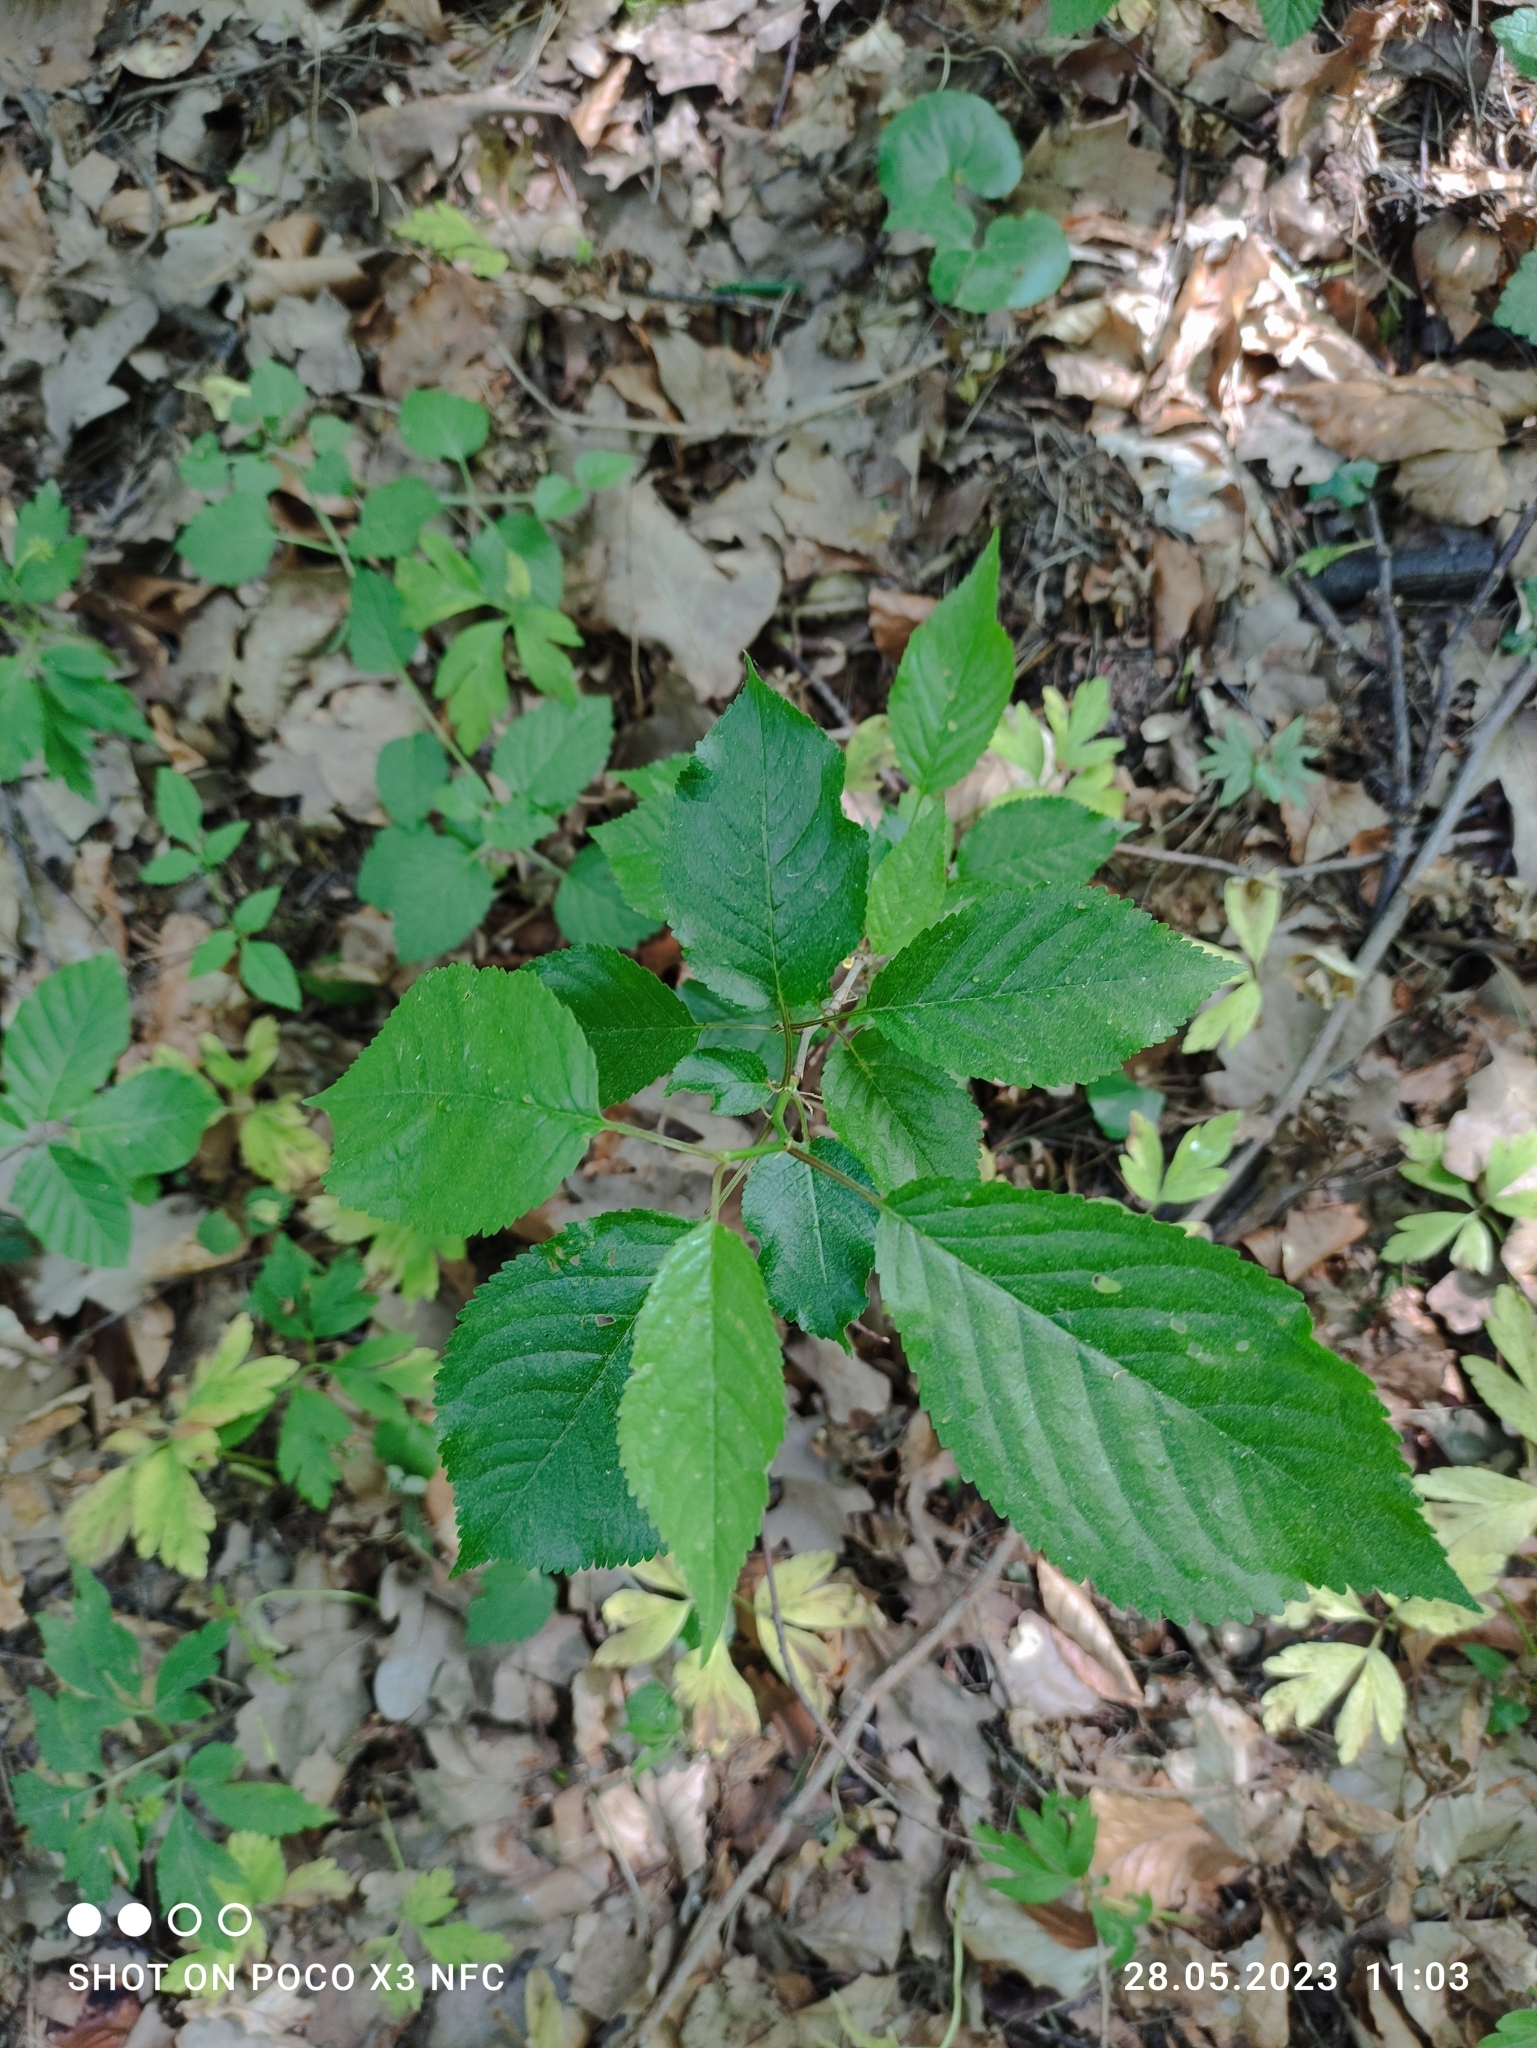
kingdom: Plantae
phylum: Tracheophyta
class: Magnoliopsida
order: Rosales
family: Rosaceae
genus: Prunus
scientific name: Prunus avium
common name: Sweet cherry
